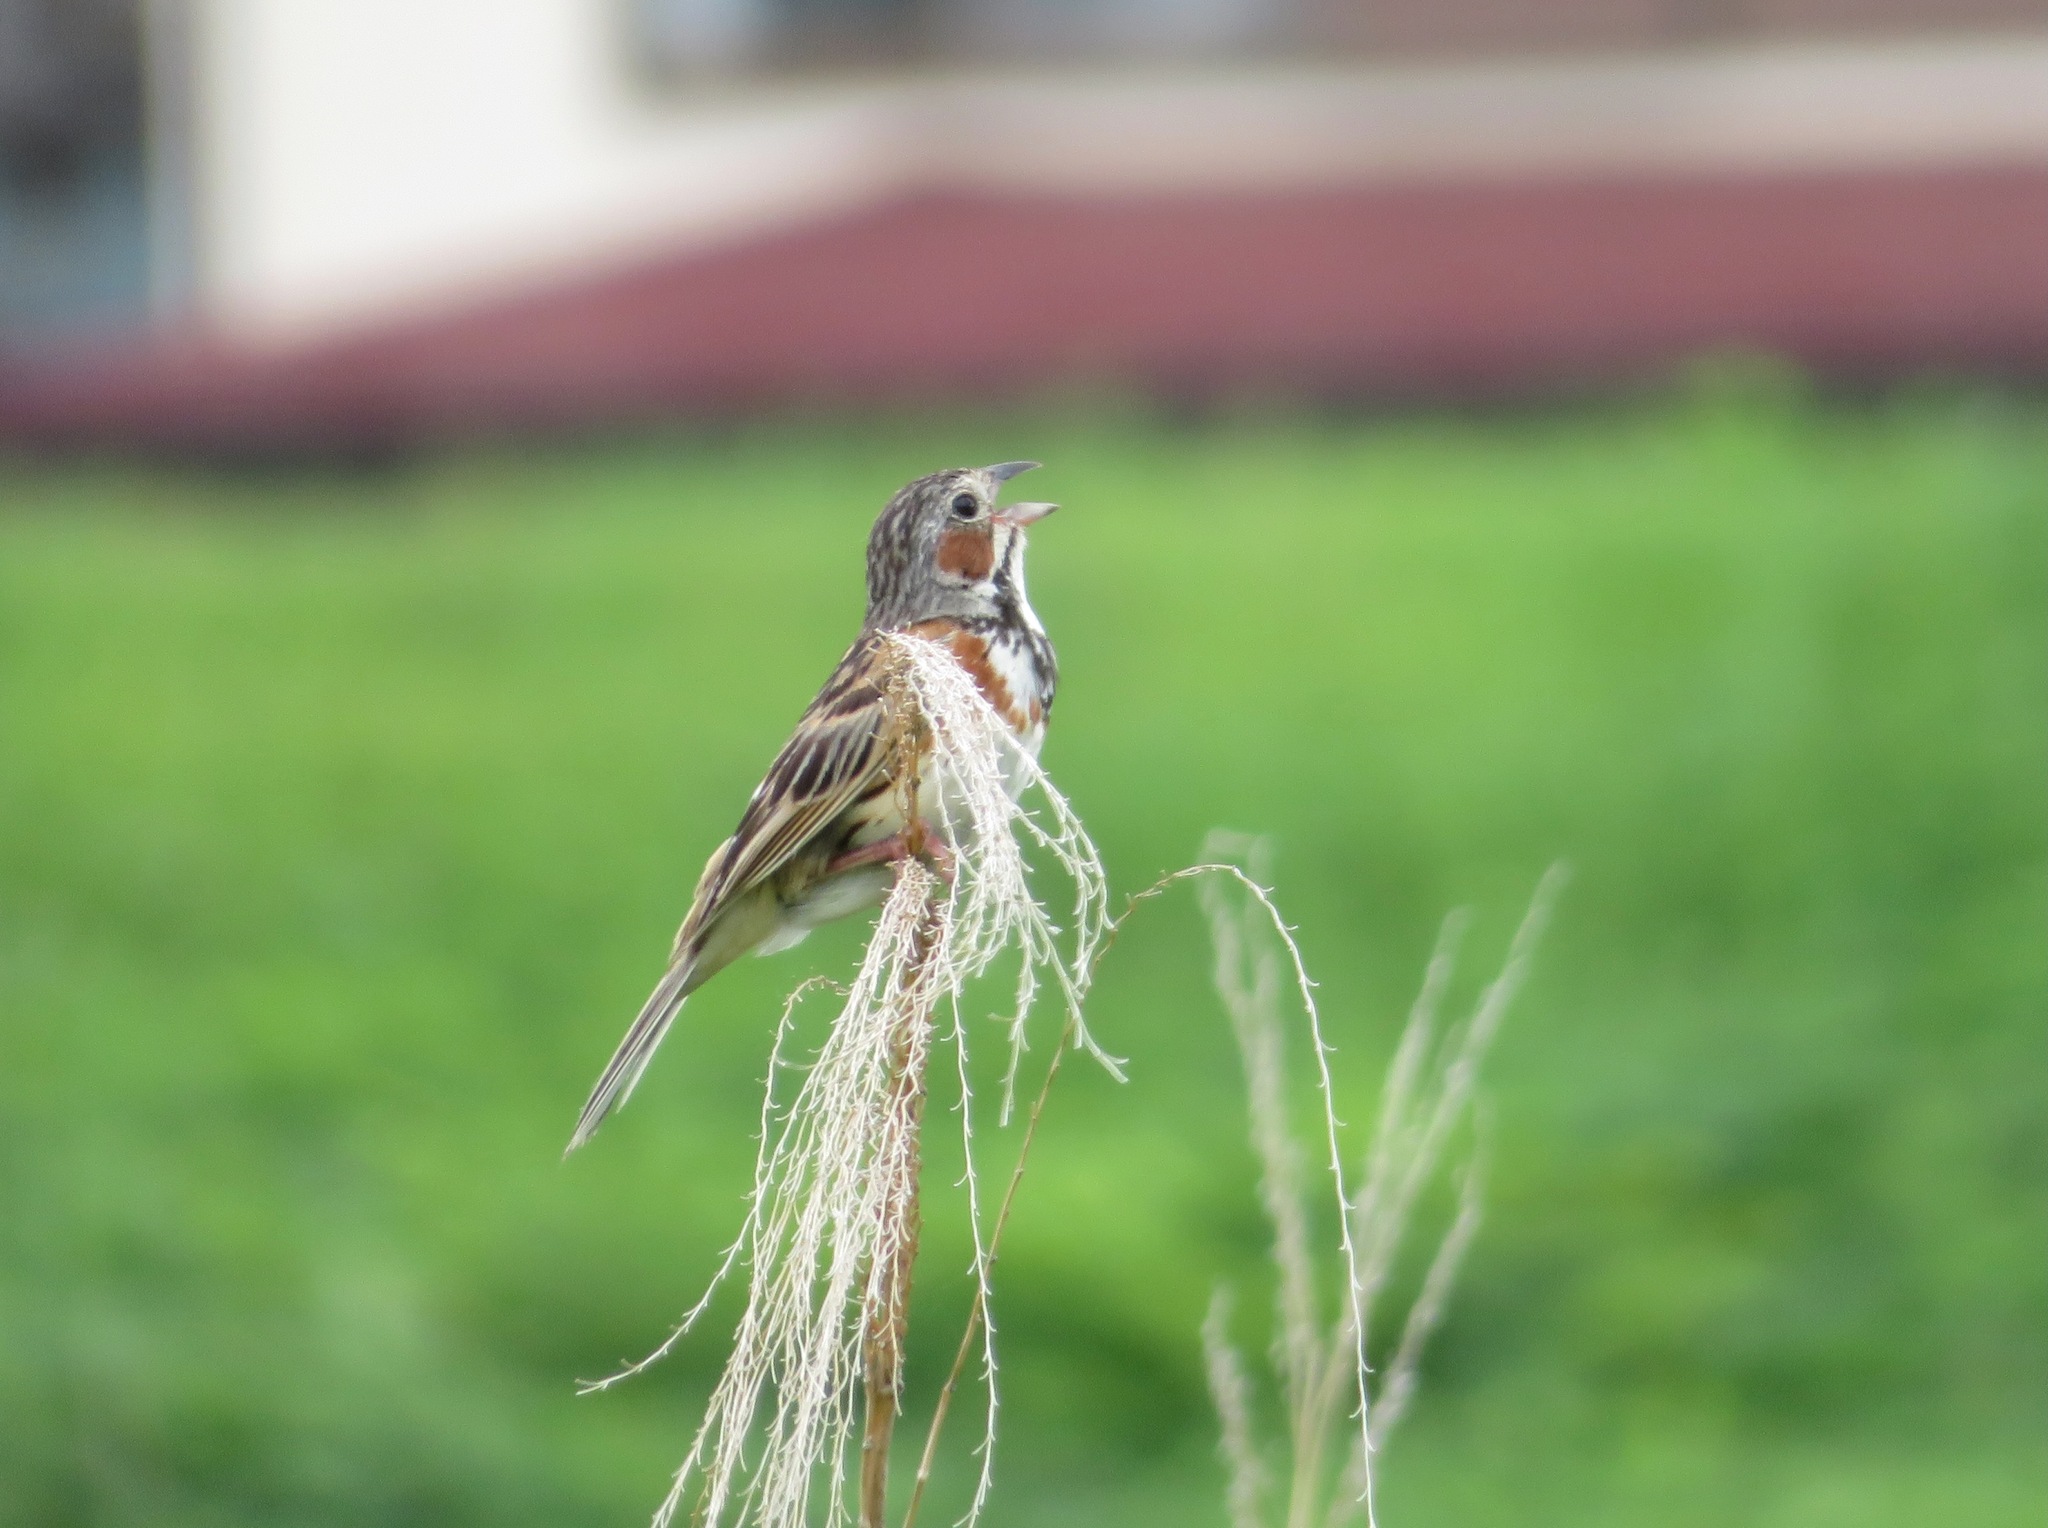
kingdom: Animalia
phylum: Chordata
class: Aves
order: Passeriformes
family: Emberizidae
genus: Emberiza
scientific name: Emberiza fucata
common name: Chestnut-eared bunting
